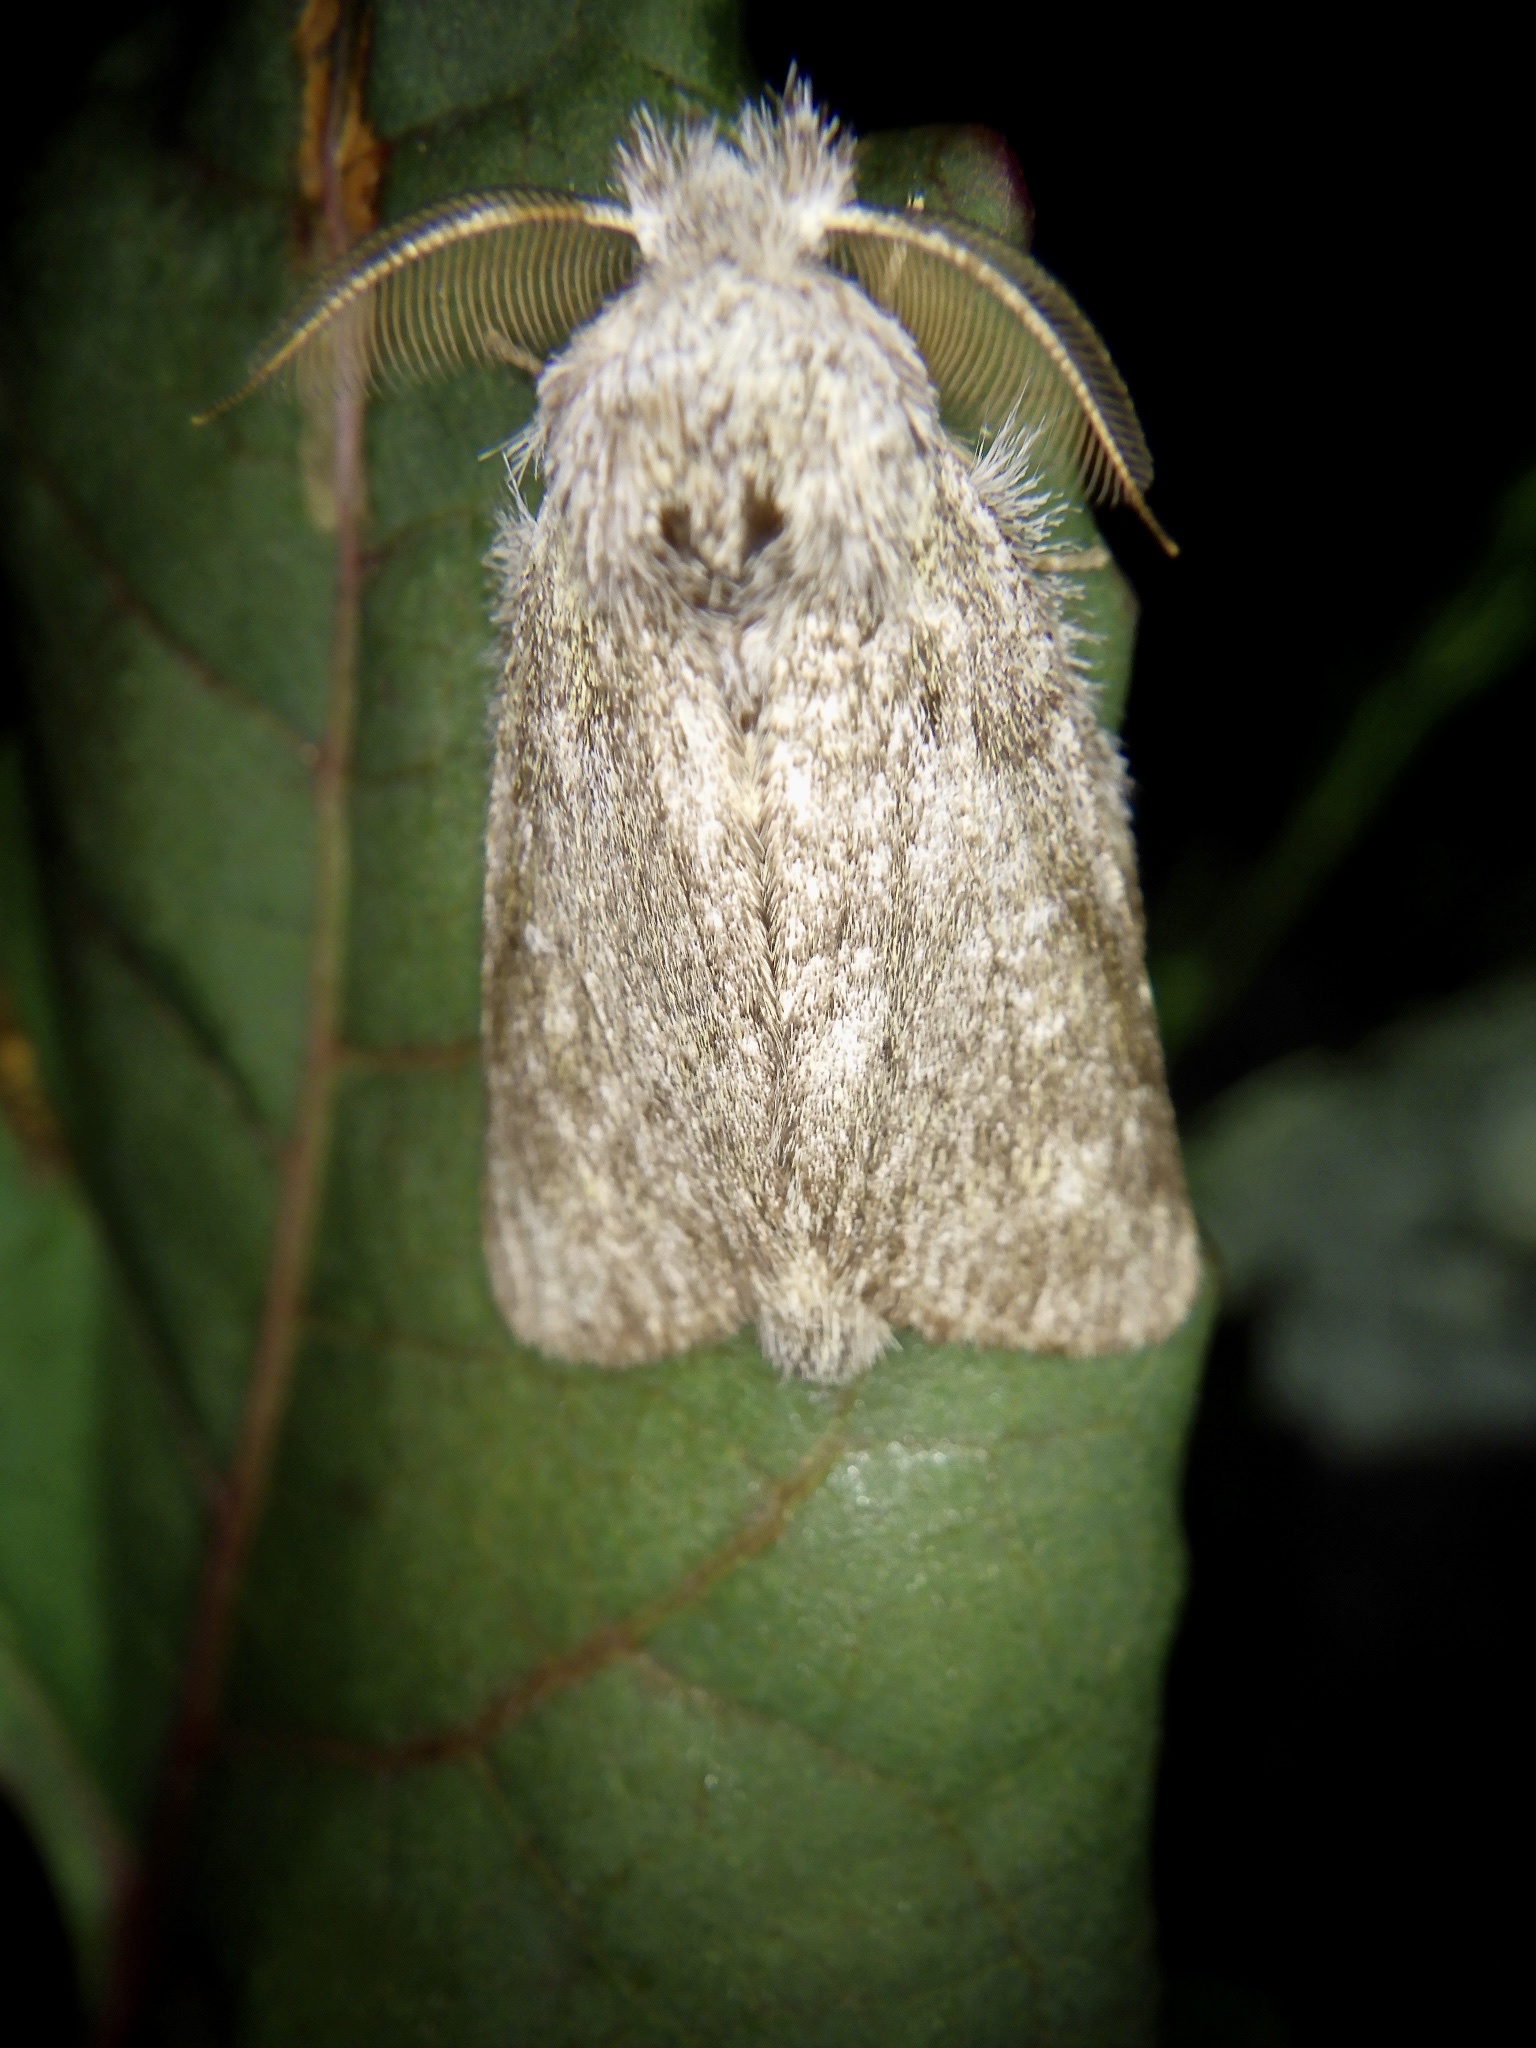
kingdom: Animalia
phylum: Arthropoda
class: Insecta
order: Lepidoptera
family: Notodontidae
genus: Syntypistis
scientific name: Syntypistis
